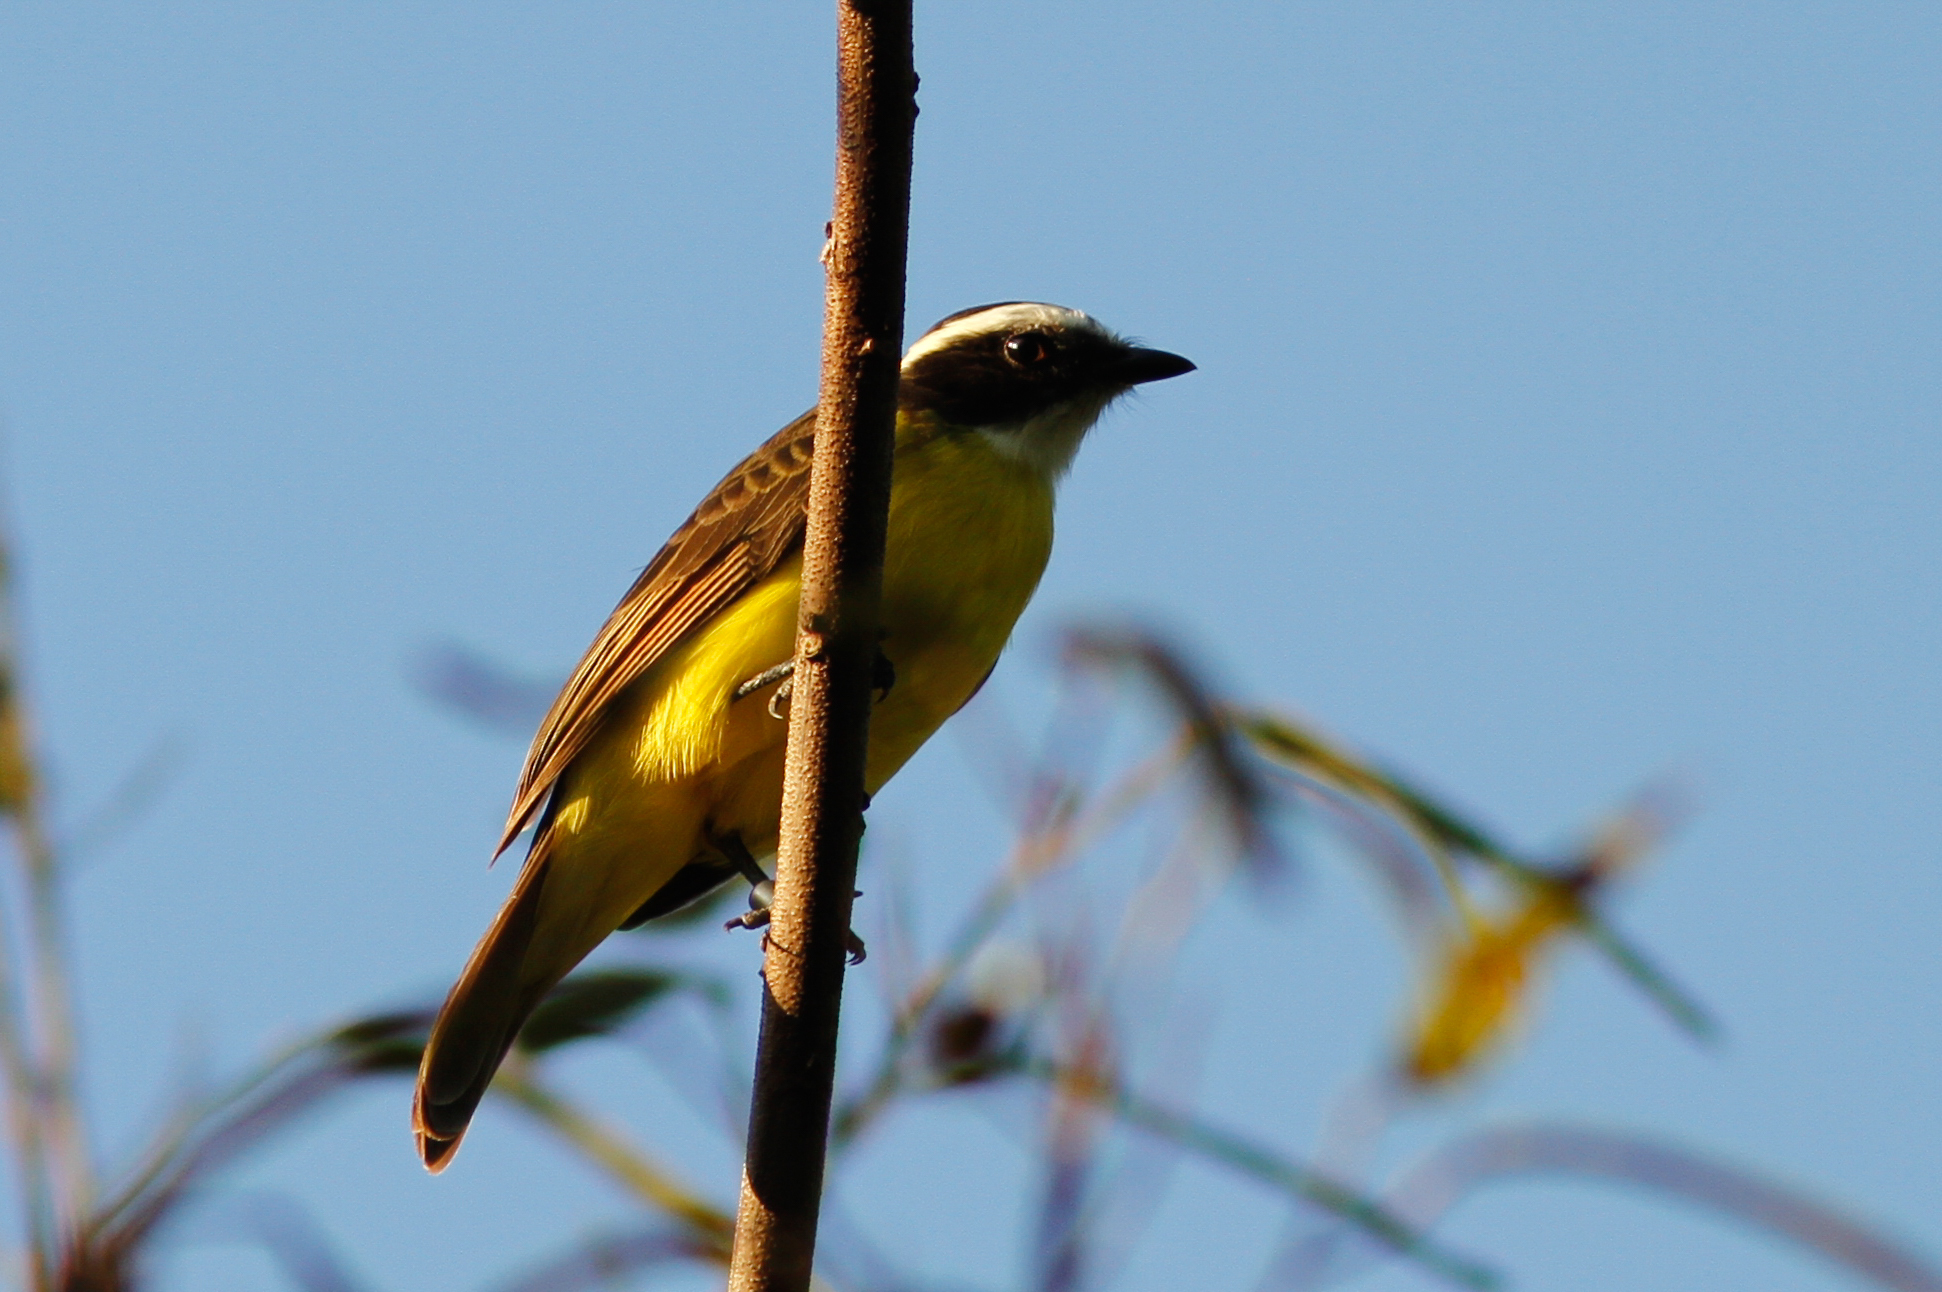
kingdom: Animalia
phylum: Chordata
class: Aves
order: Passeriformes
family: Tyrannidae
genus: Myiozetetes
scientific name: Myiozetetes cayanensis
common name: Rusty-margined flycatcher
